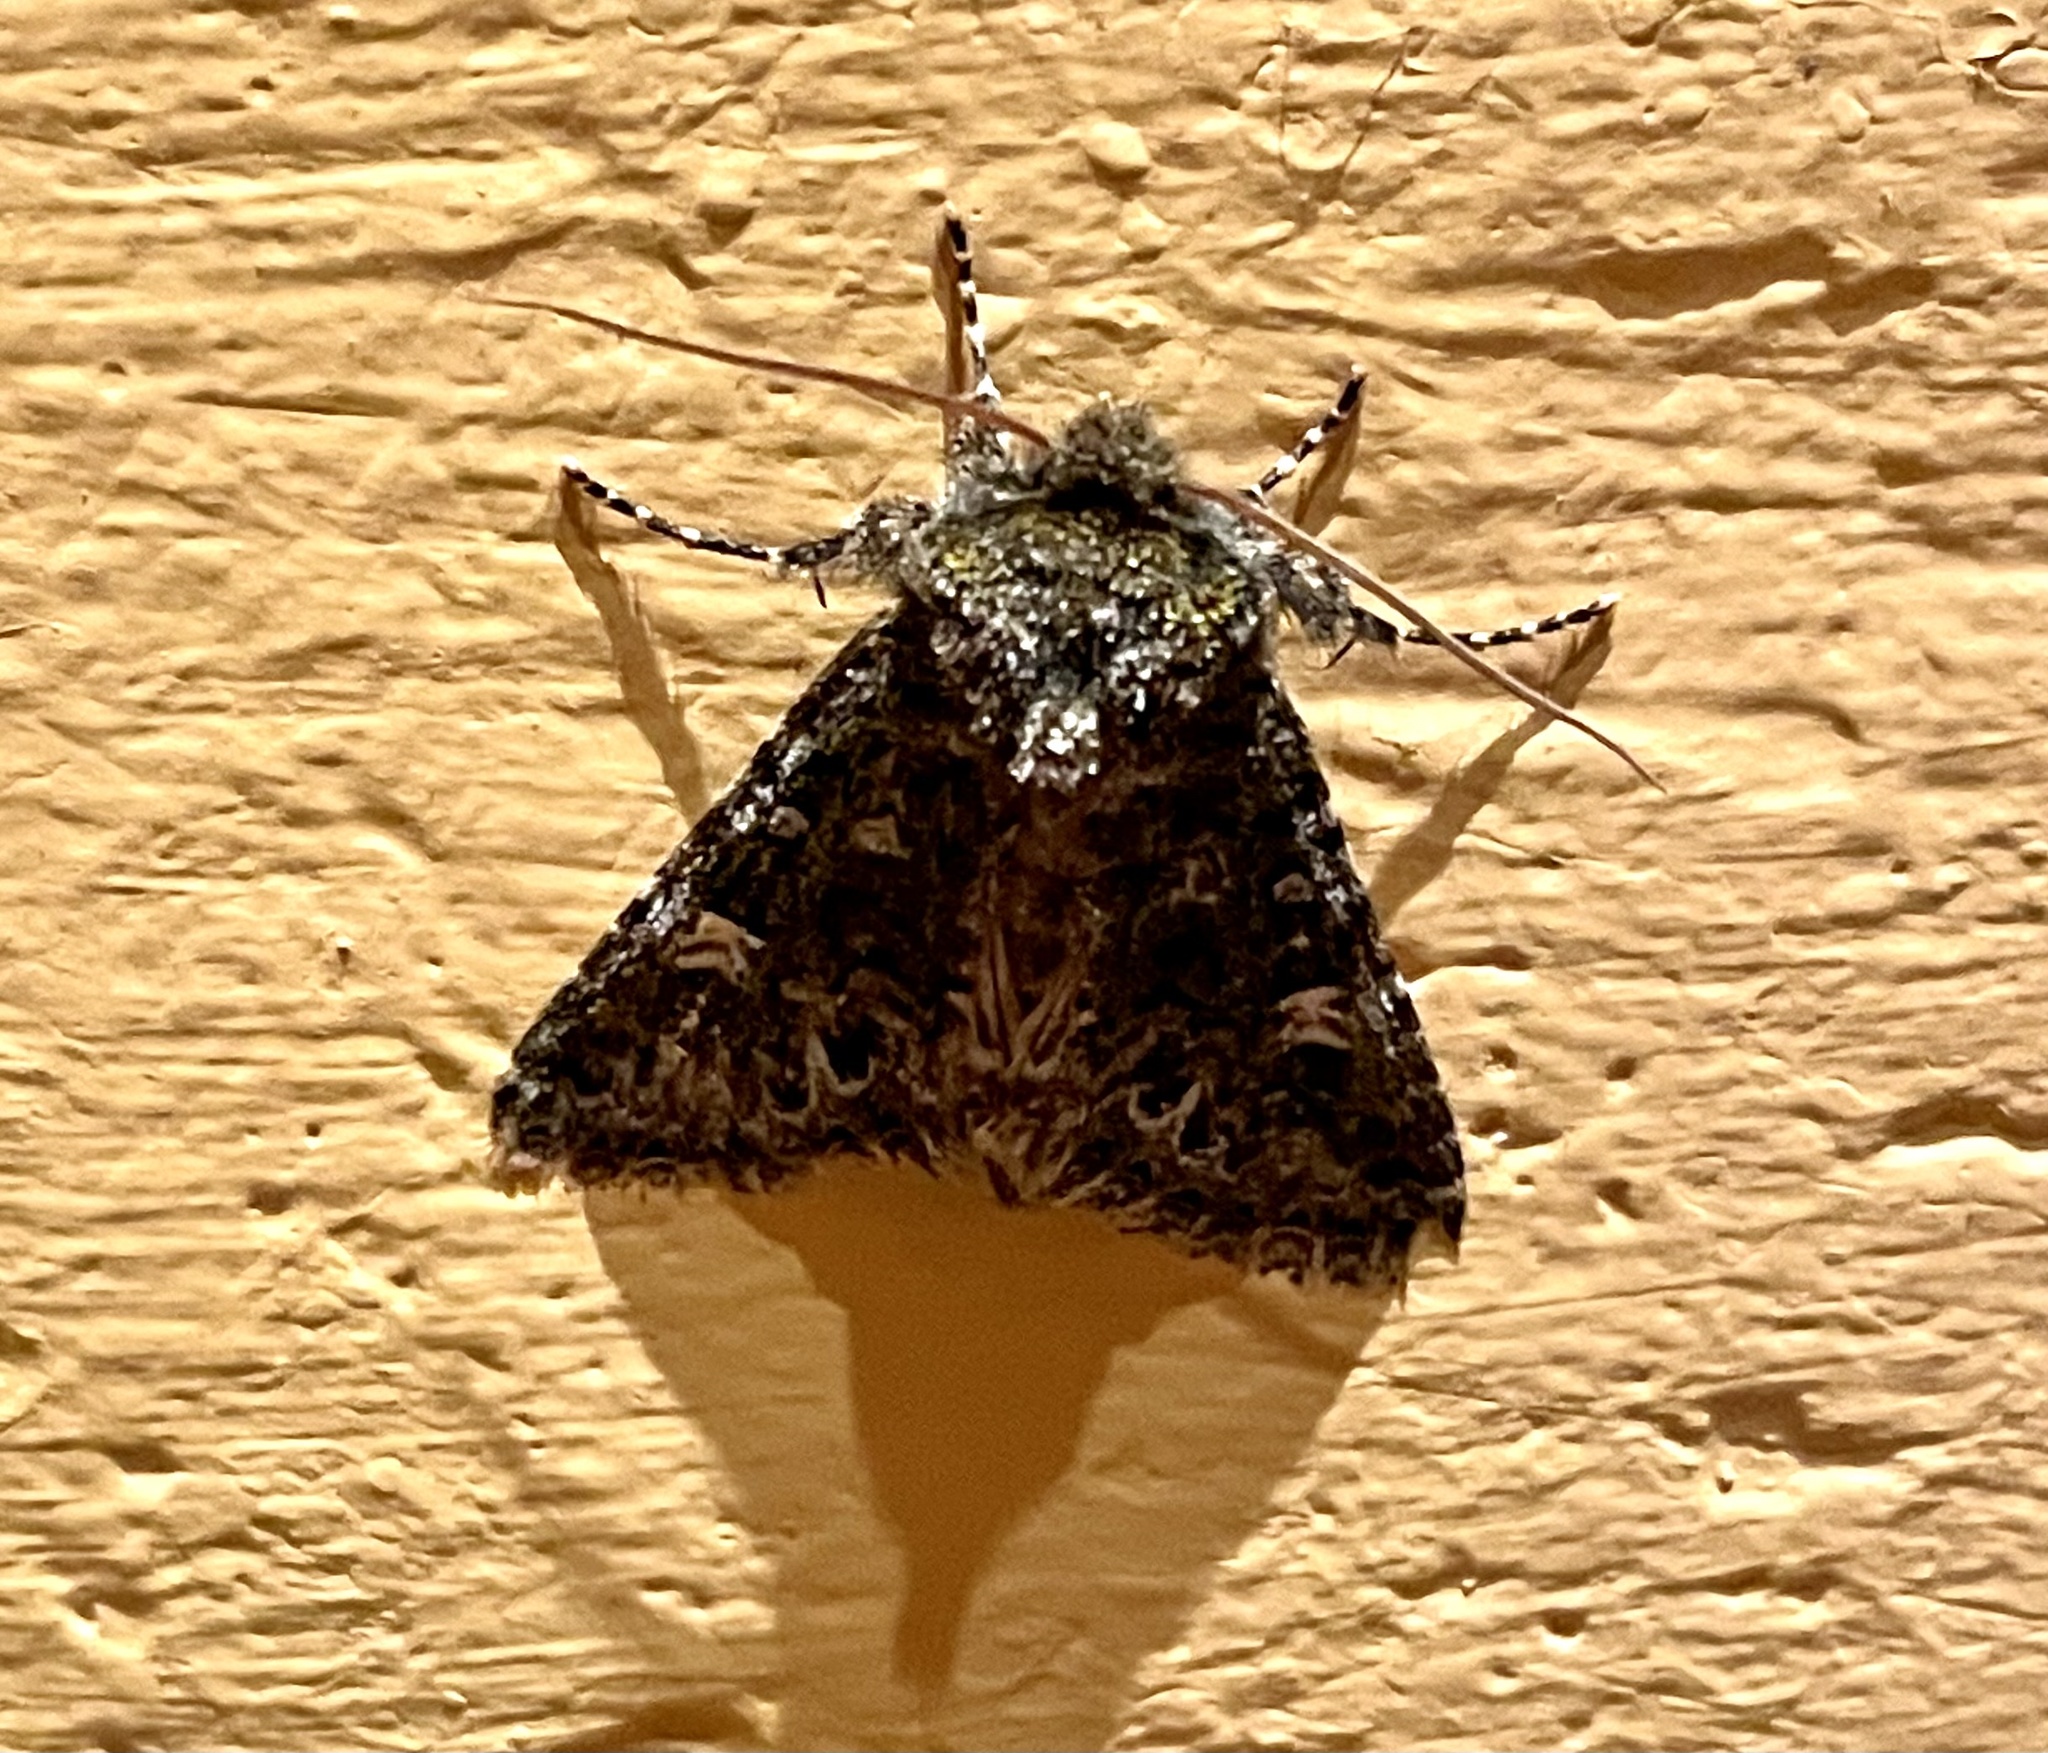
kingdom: Animalia
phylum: Arthropoda
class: Insecta
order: Lepidoptera
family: Noctuidae
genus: Valeria
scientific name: Valeria jaspidea
